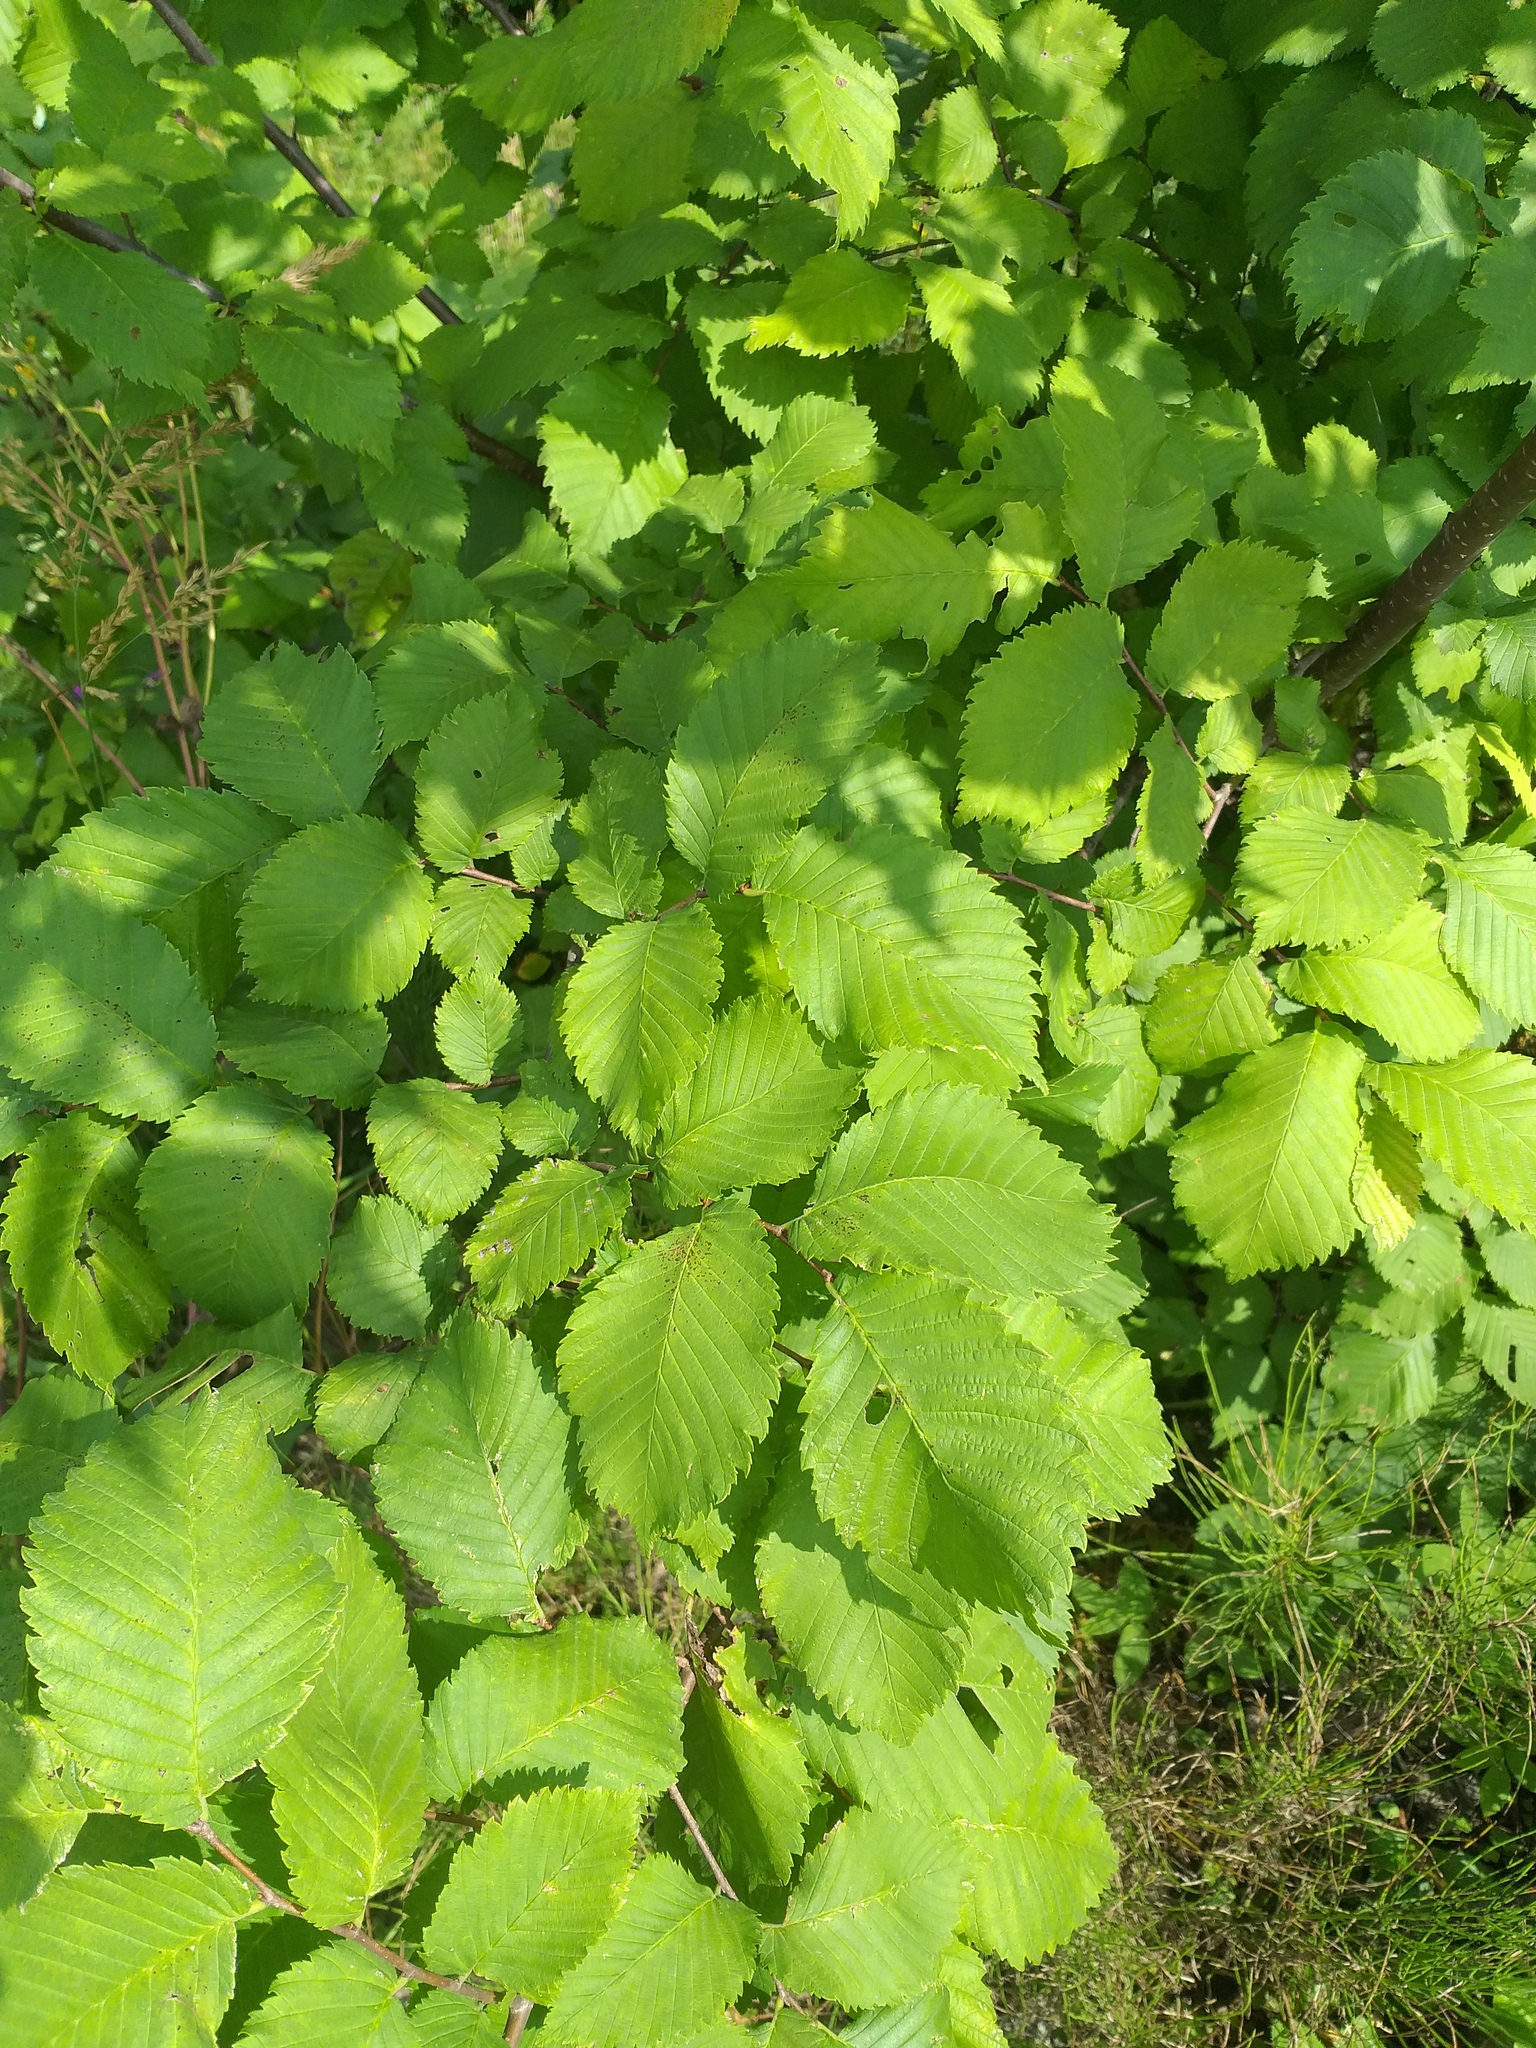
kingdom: Plantae
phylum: Tracheophyta
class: Magnoliopsida
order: Rosales
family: Ulmaceae
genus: Ulmus
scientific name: Ulmus laevis
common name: European white-elm
